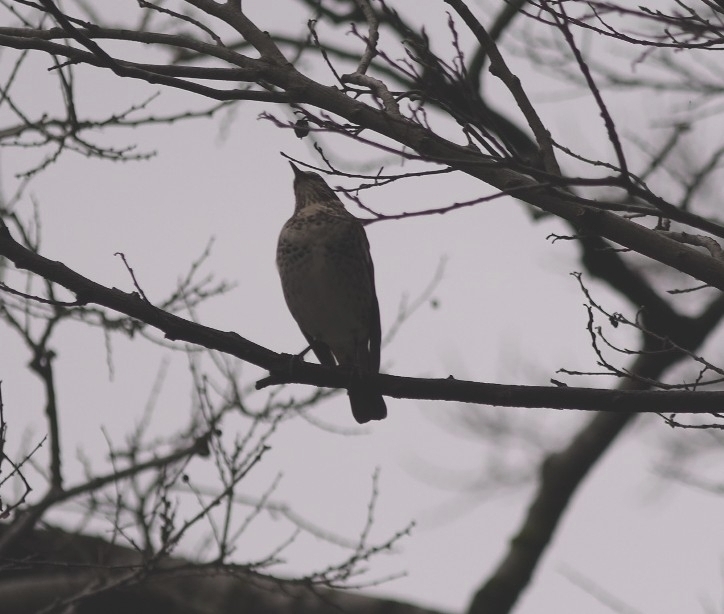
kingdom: Animalia
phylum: Chordata
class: Aves
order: Passeriformes
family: Turdidae
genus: Turdus
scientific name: Turdus eunomus
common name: Dusky thrush
